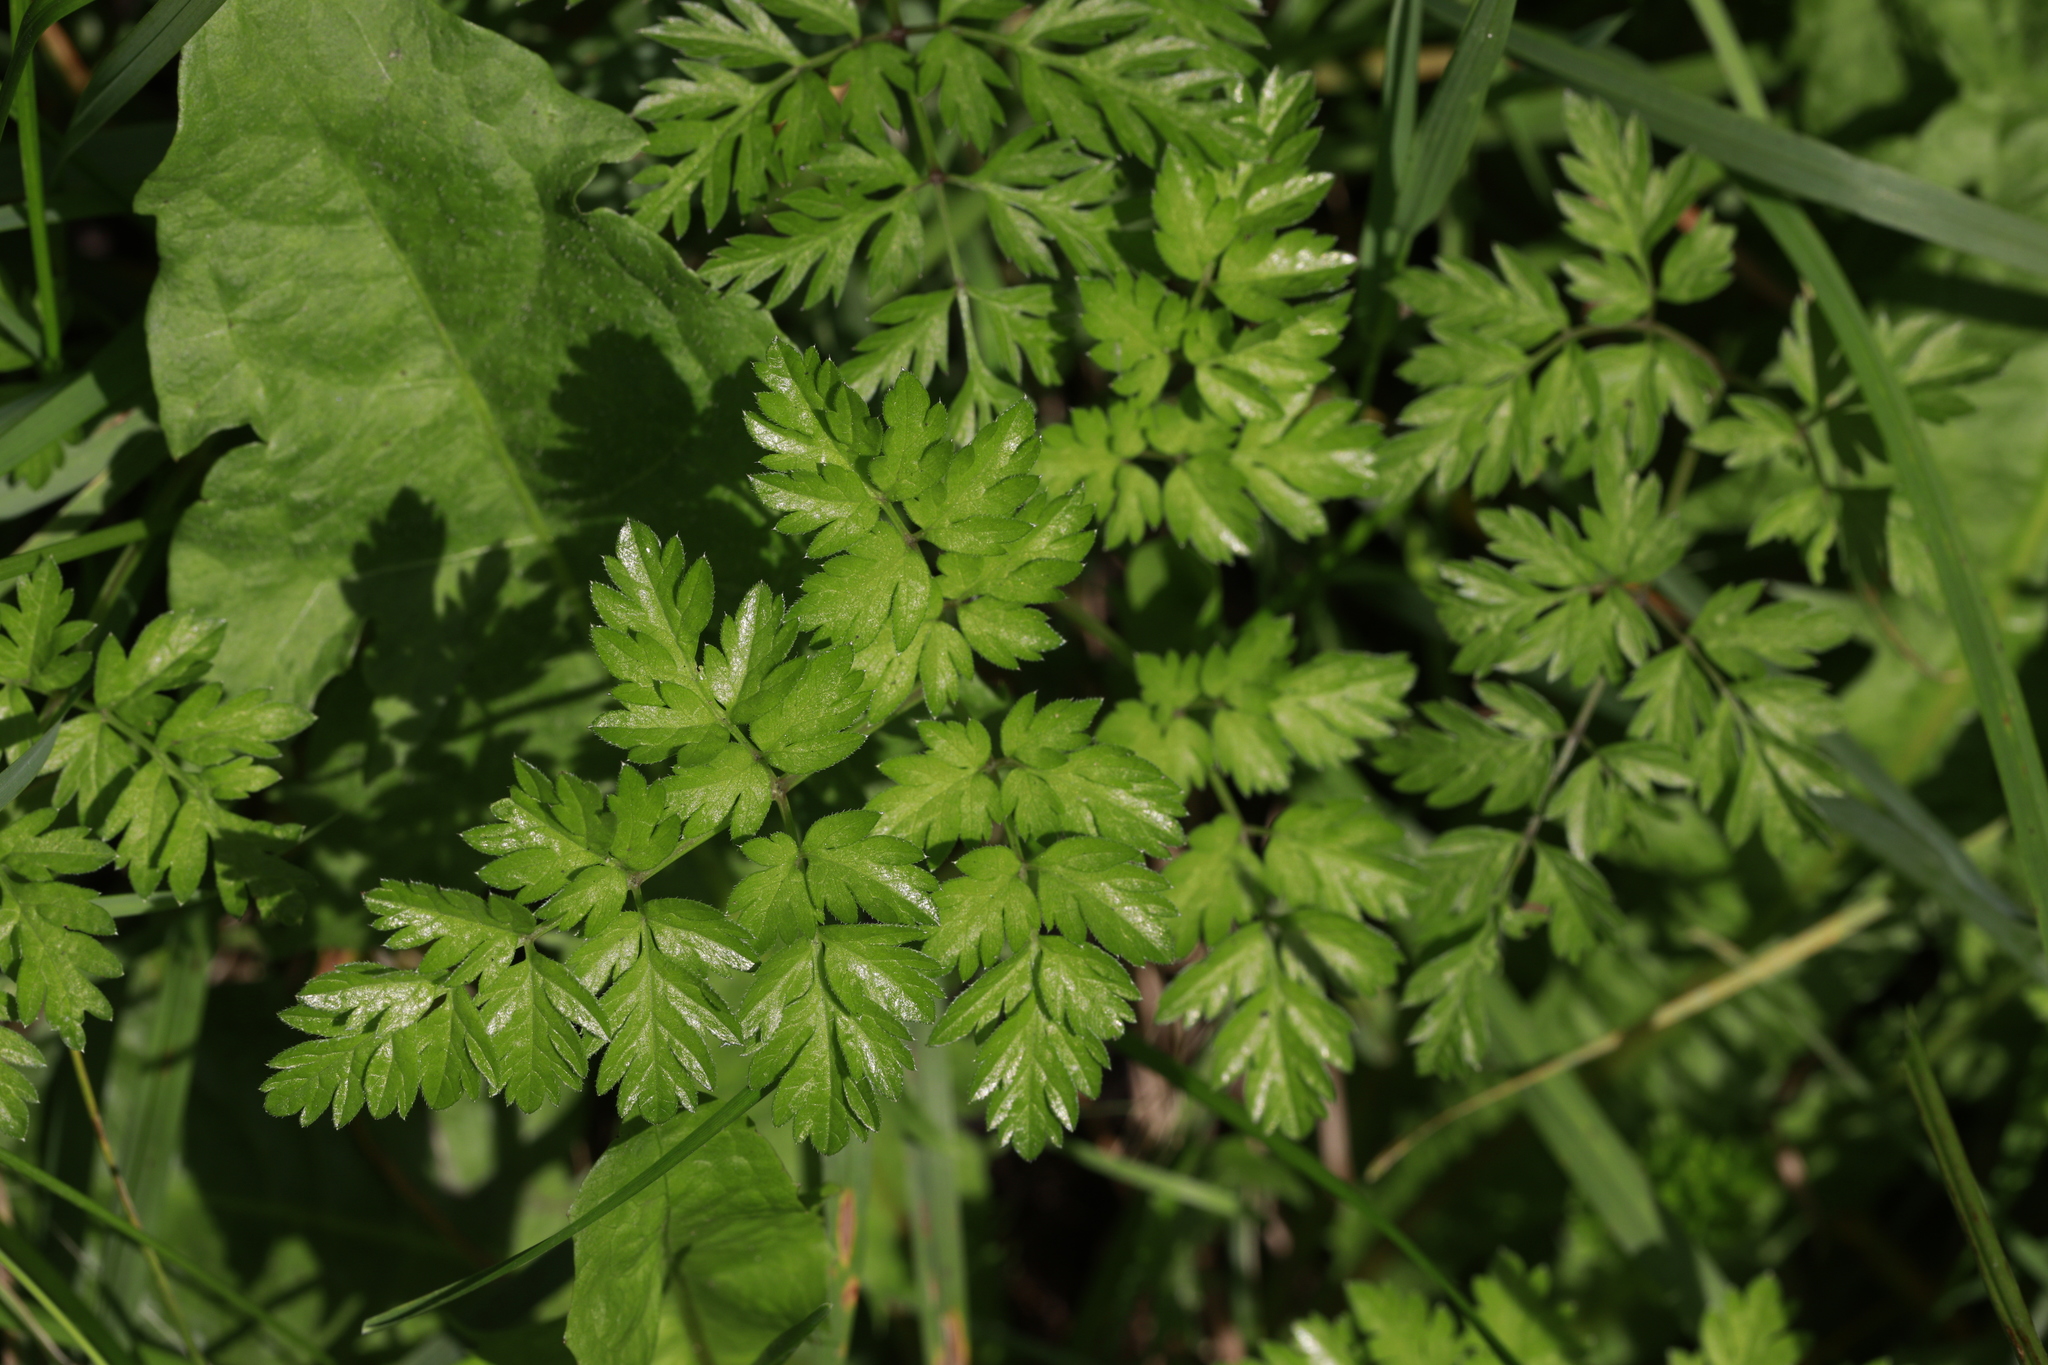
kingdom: Plantae
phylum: Tracheophyta
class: Magnoliopsida
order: Apiales
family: Apiaceae
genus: Anthriscus
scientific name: Anthriscus sylvestris
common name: Cow parsley
